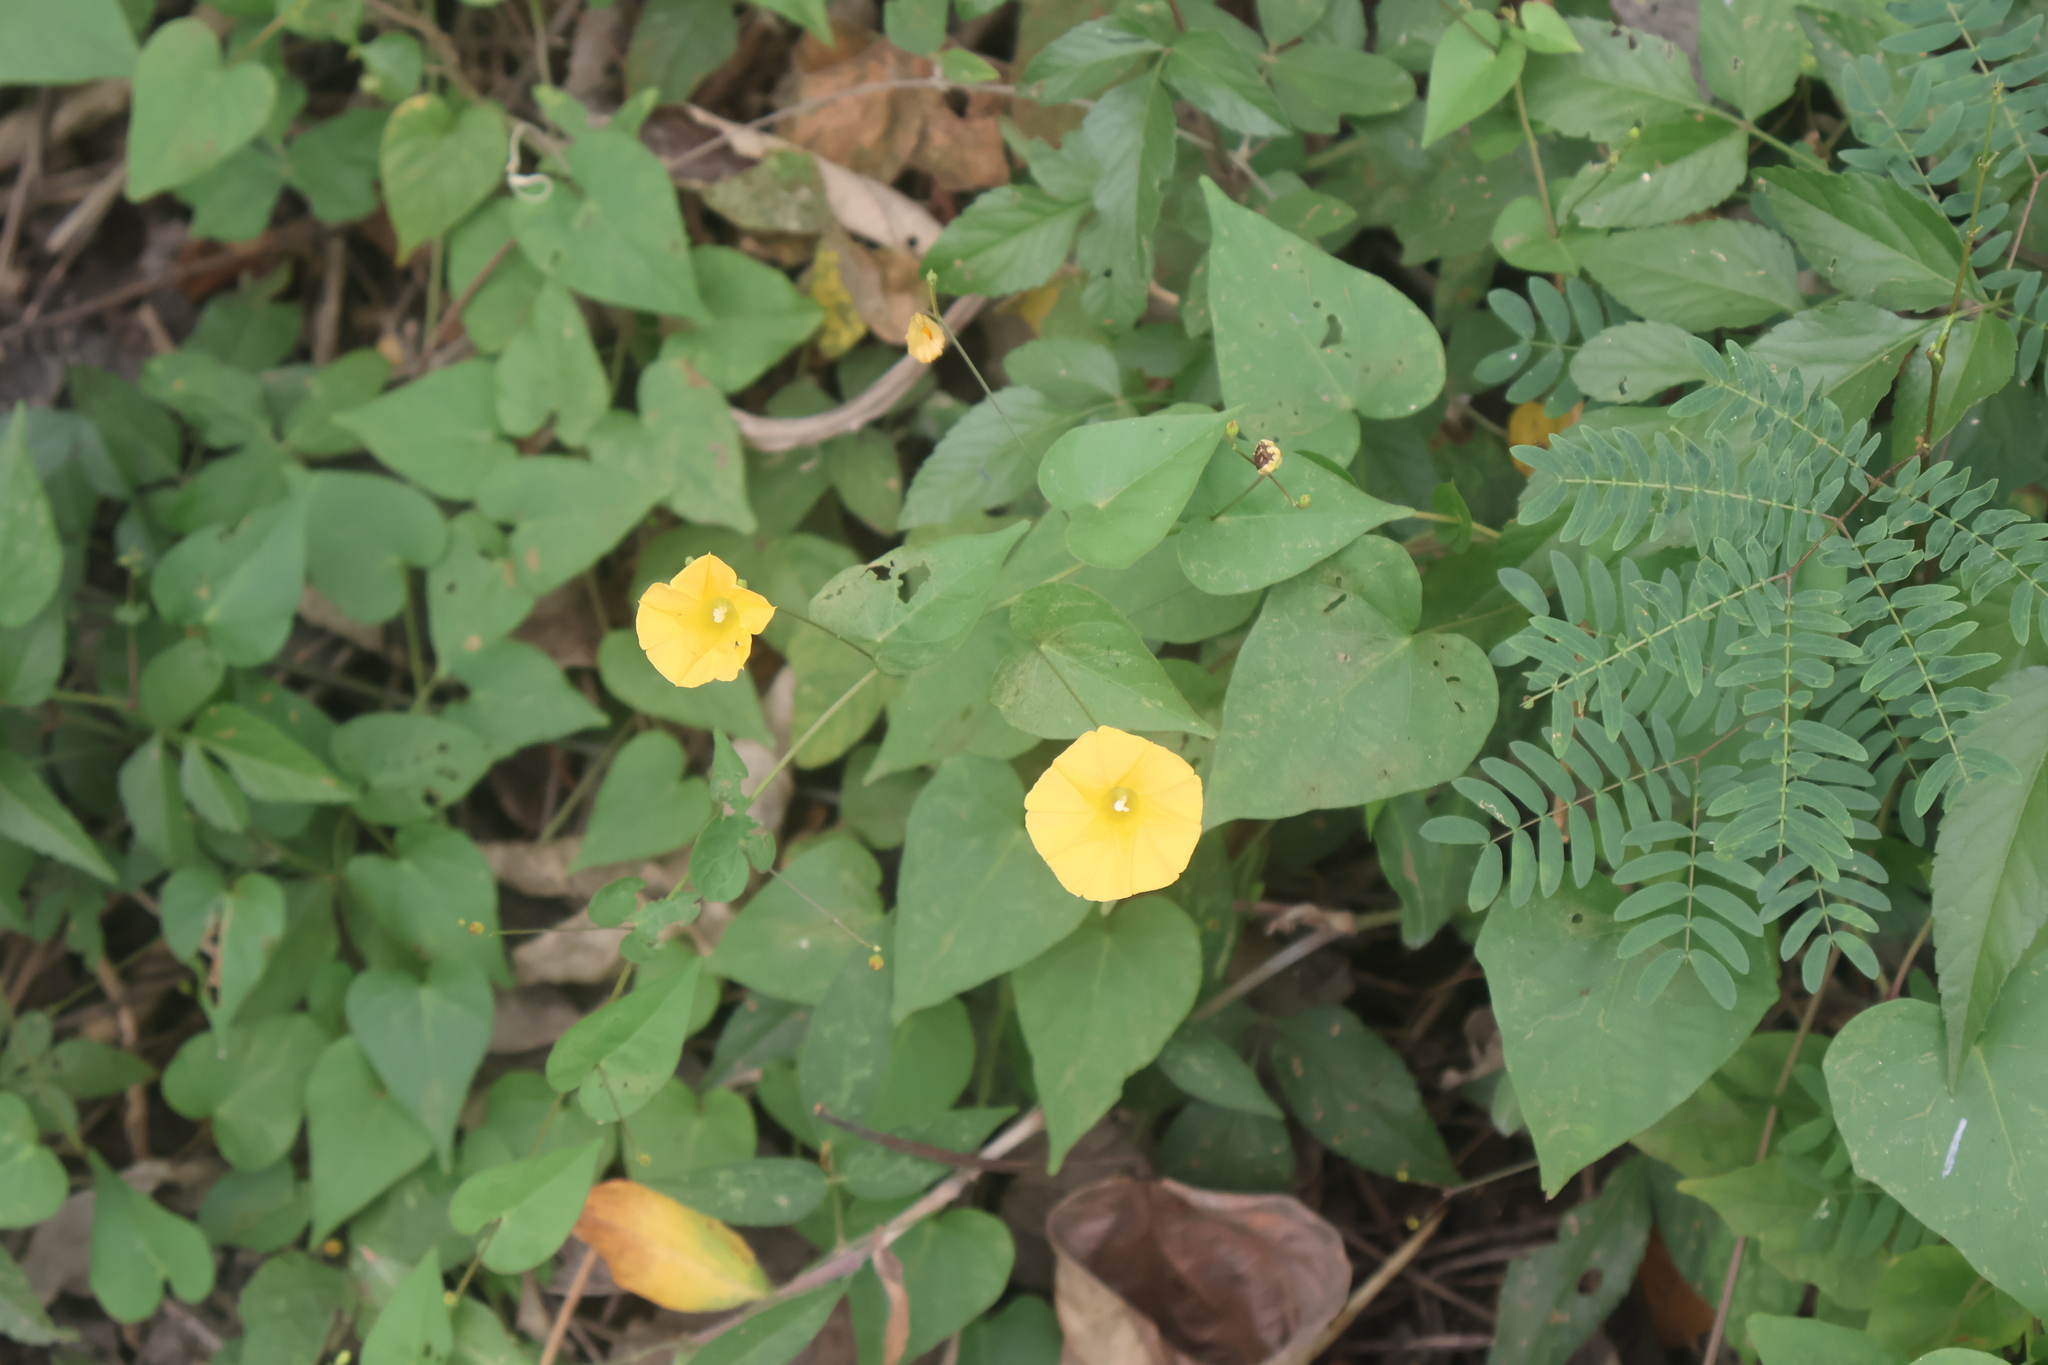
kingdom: Plantae
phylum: Tracheophyta
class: Magnoliopsida
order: Solanales
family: Convolvulaceae
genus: Ipomoea
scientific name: Ipomoea microsepala
